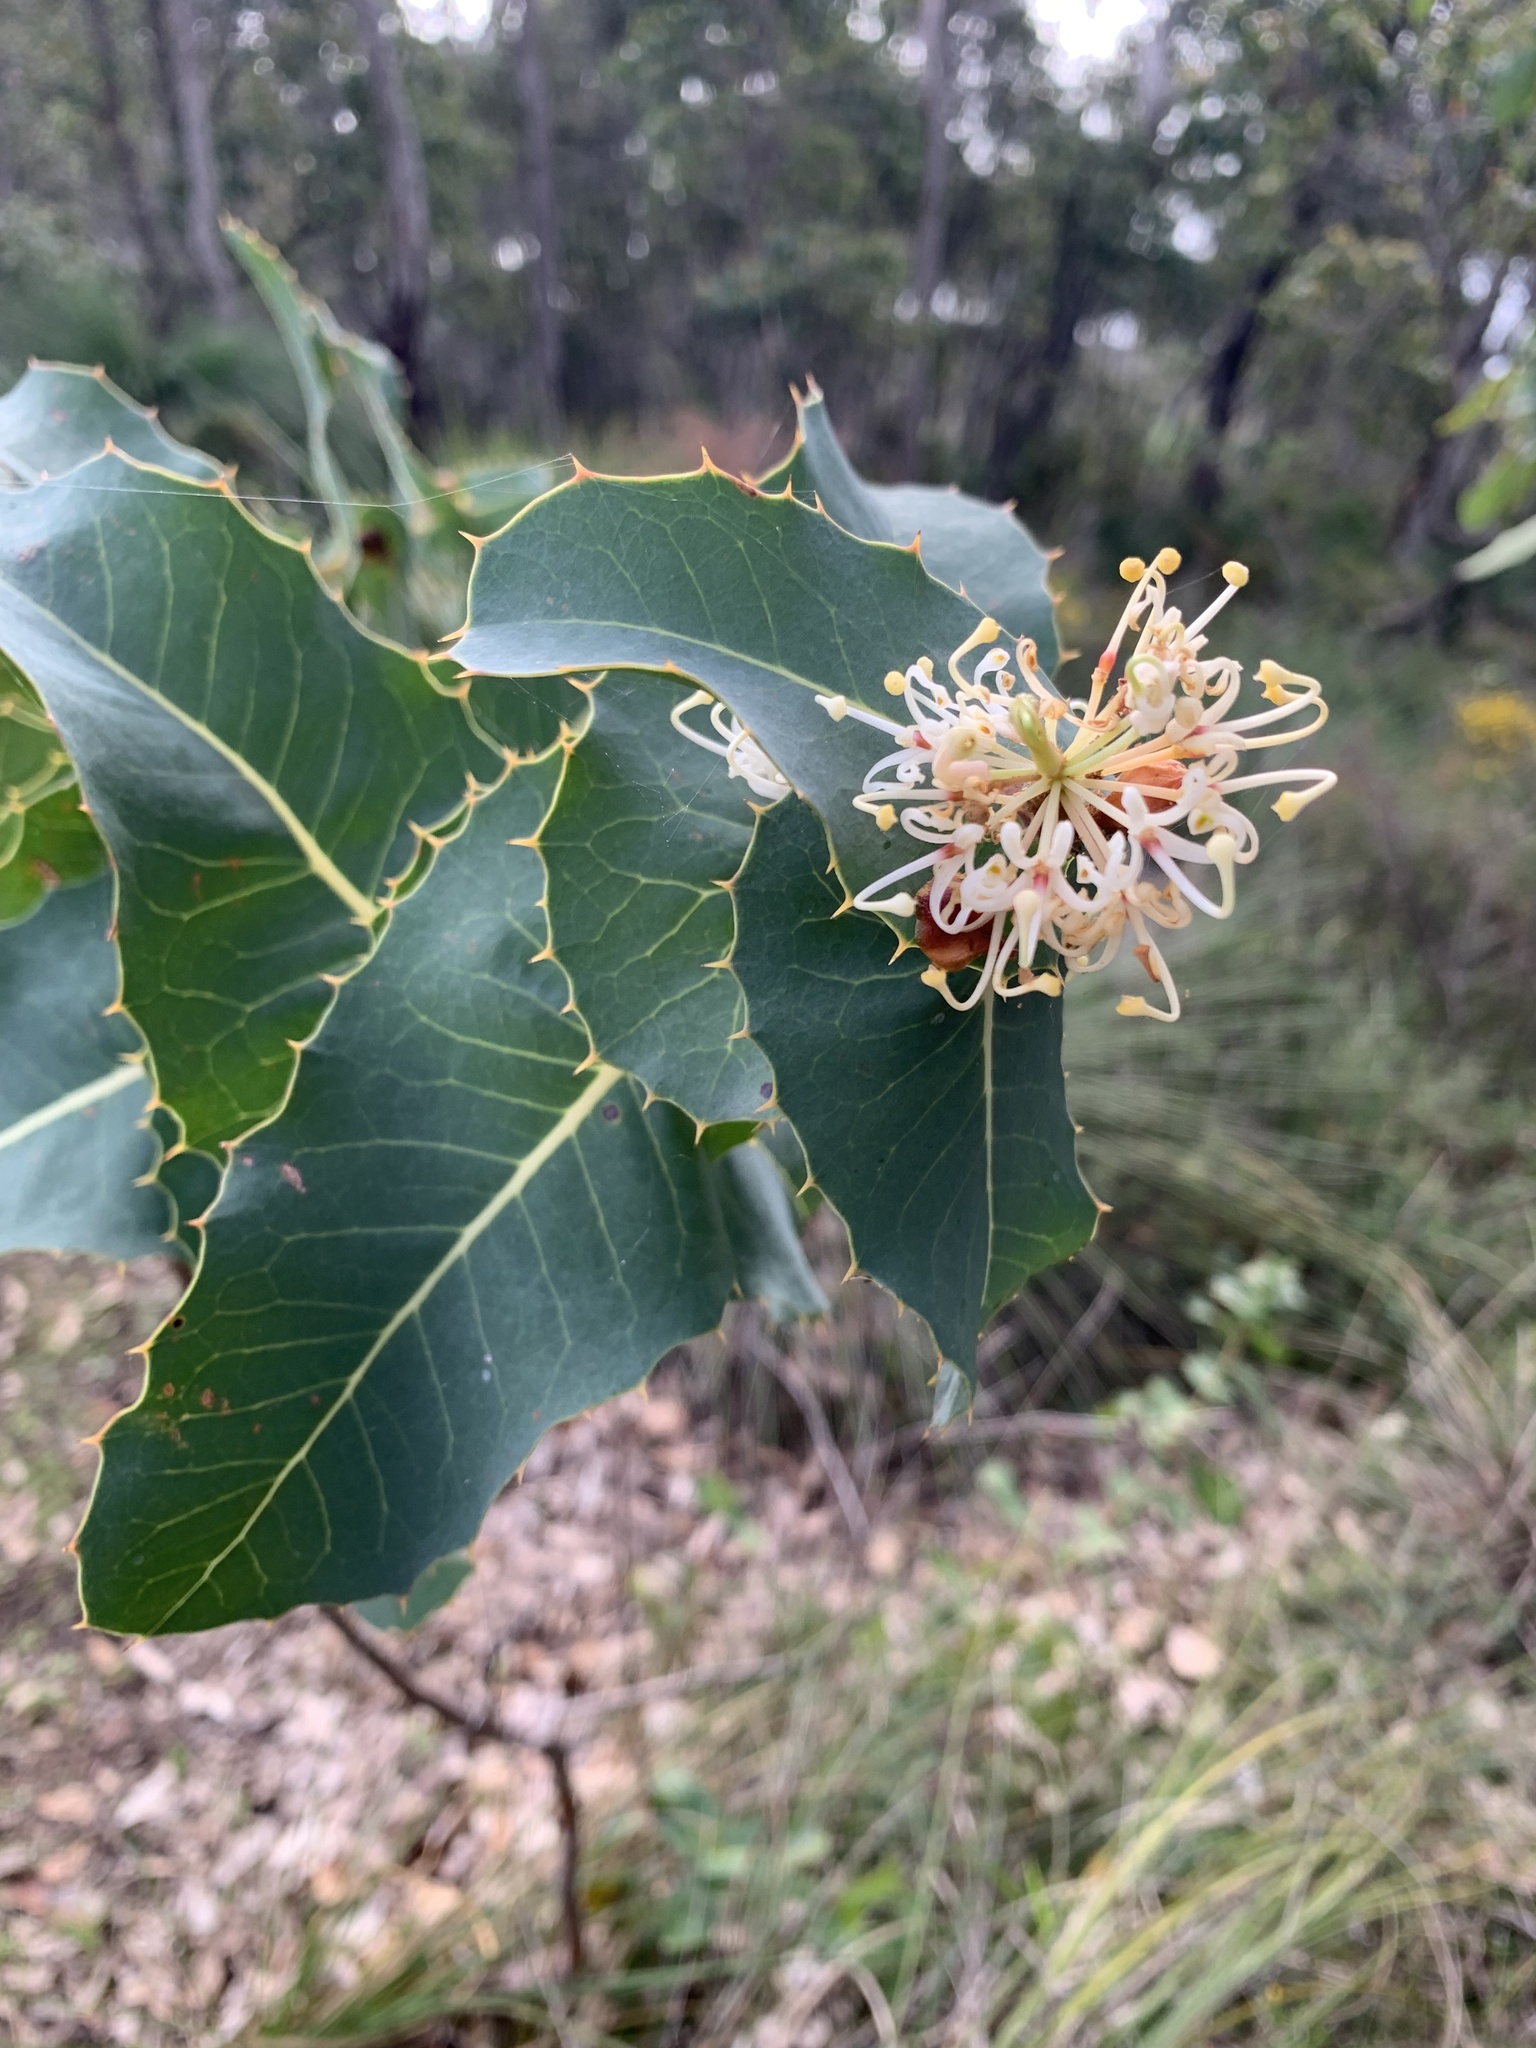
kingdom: Plantae
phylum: Tracheophyta
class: Magnoliopsida
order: Proteales
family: Proteaceae
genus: Hakea
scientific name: Hakea amplexicaulis
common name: Prickly hakea
